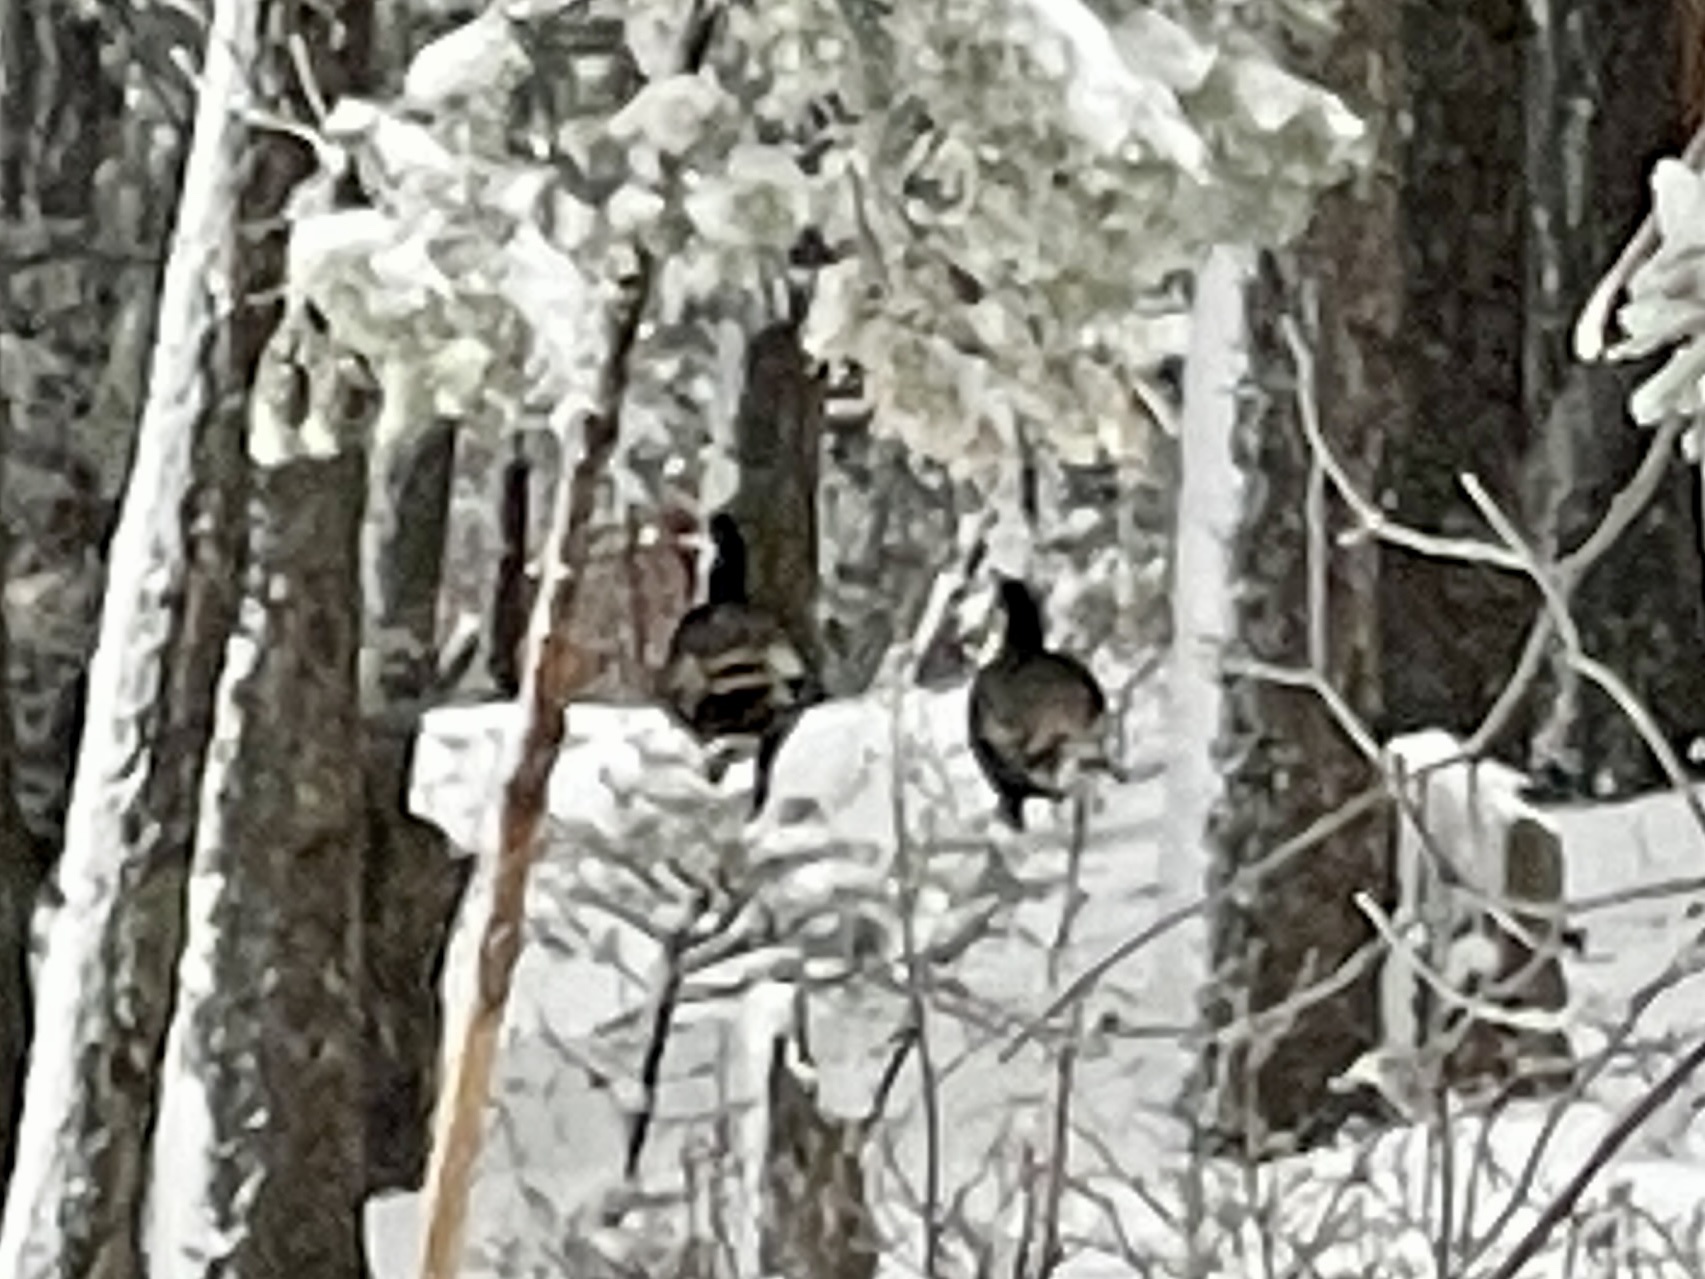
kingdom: Animalia
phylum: Chordata
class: Aves
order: Galliformes
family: Phasianidae
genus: Meleagris
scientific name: Meleagris gallopavo
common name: Wild turkey
